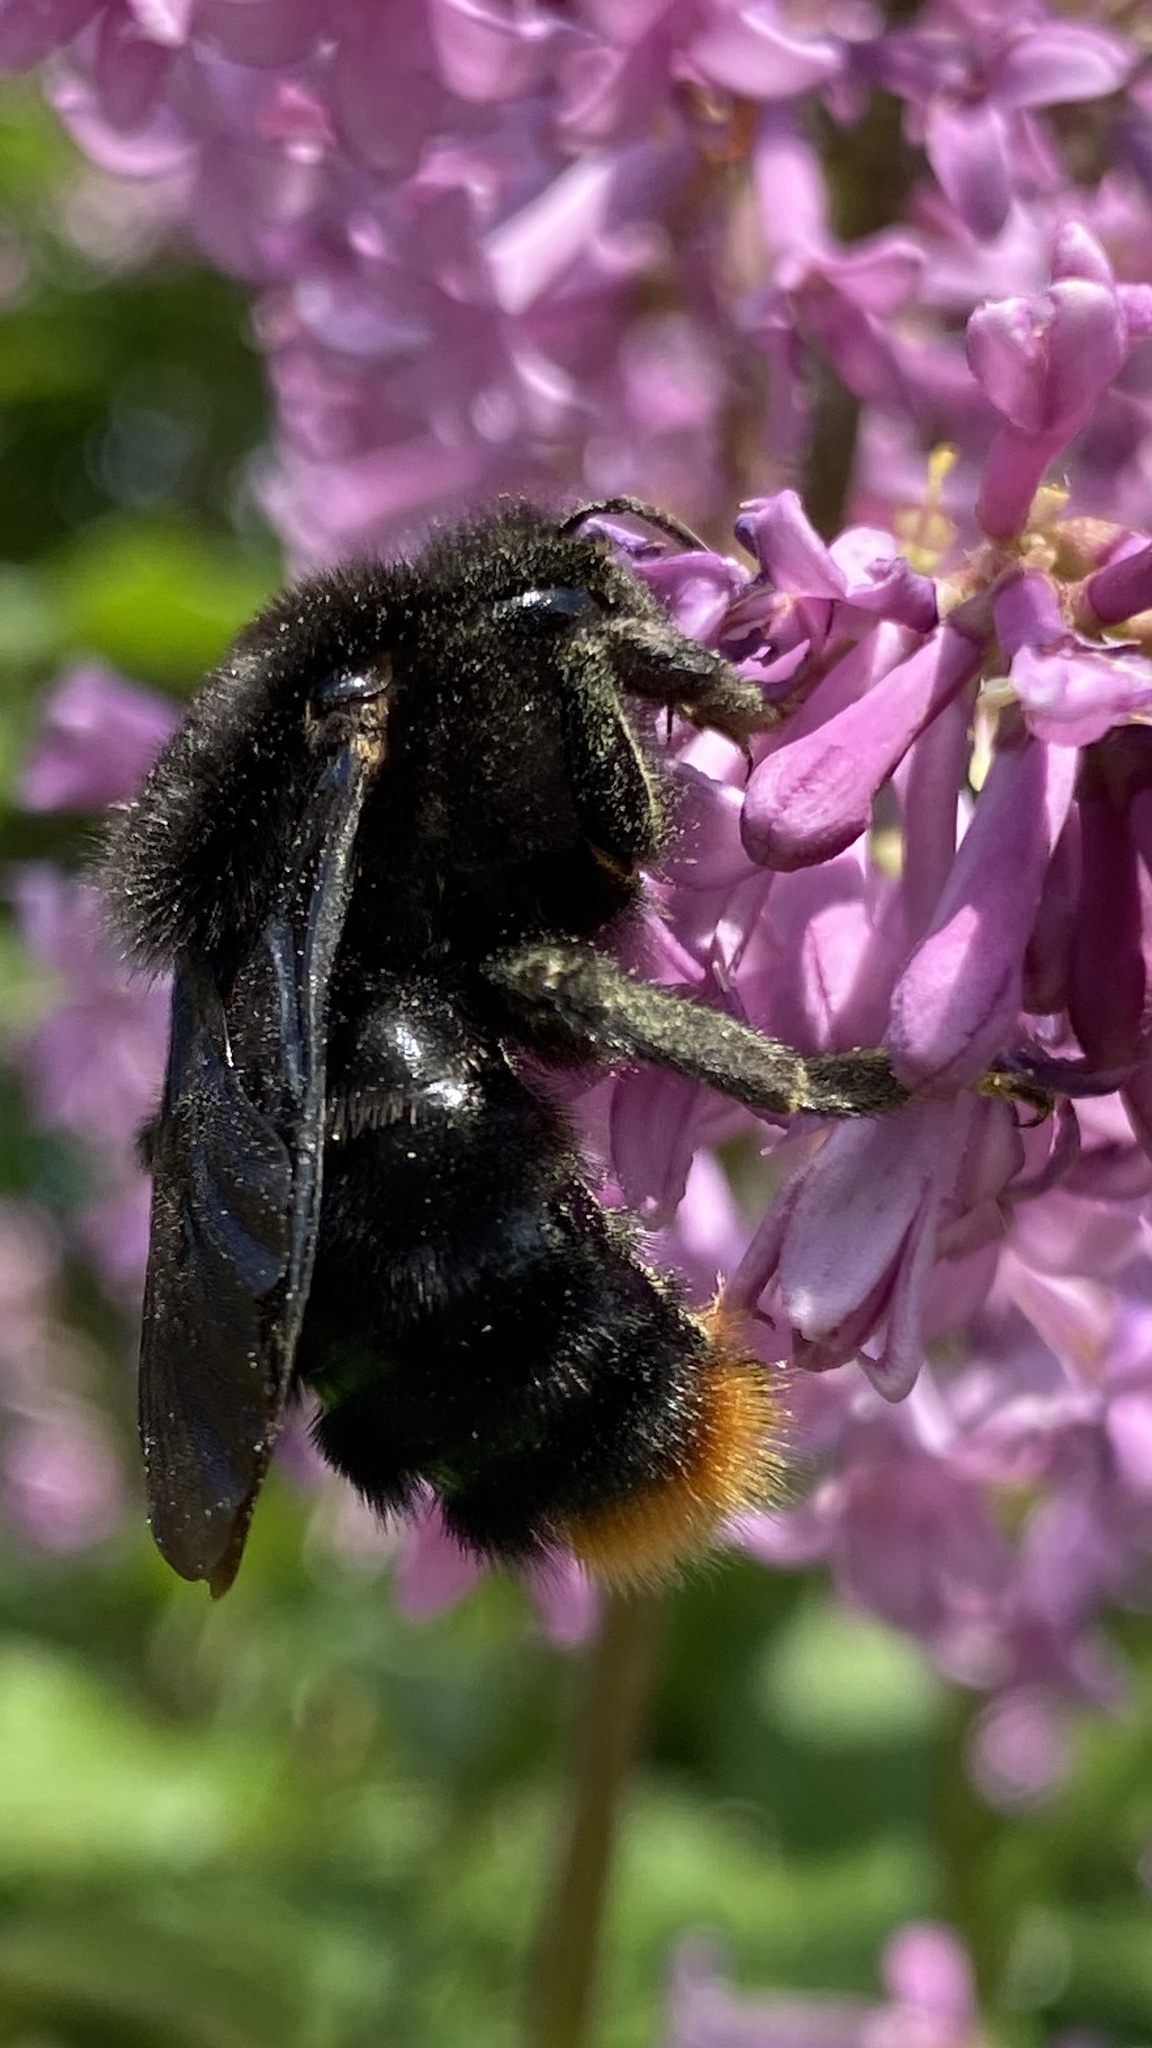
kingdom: Animalia
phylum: Arthropoda
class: Insecta
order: Hymenoptera
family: Apidae
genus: Bombus
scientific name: Bombus rupestris
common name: Hill cuckoo-bee
